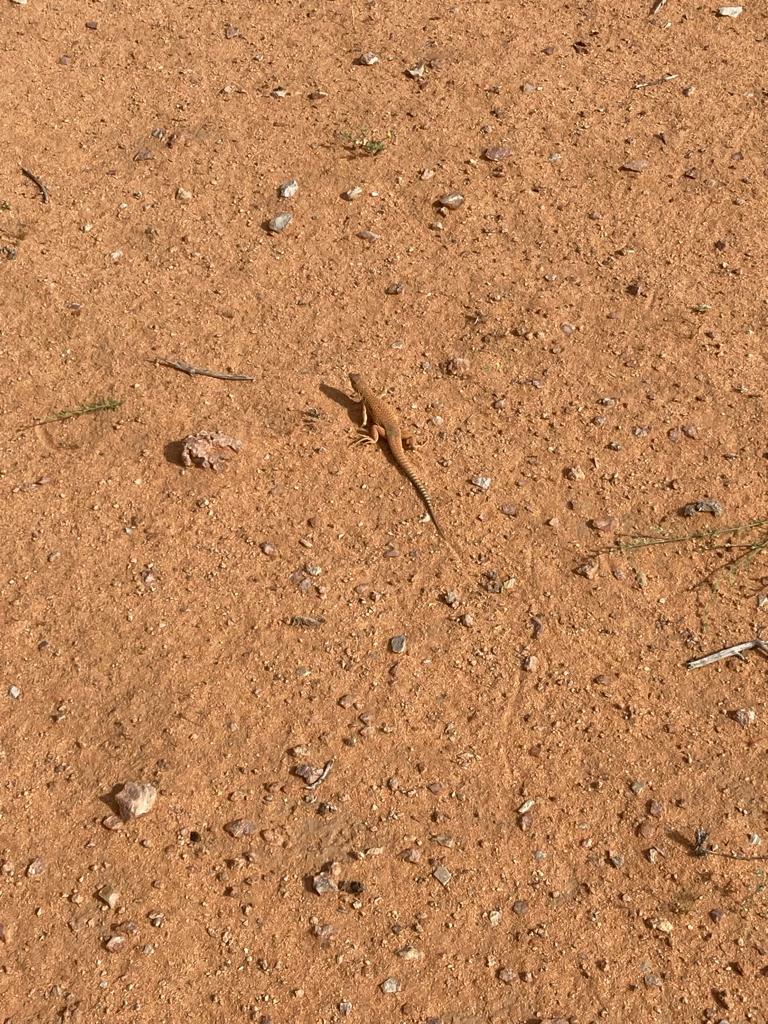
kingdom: Animalia
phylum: Chordata
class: Squamata
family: Lacertidae
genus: Acanthodactylus
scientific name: Acanthodactylus schmidti
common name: Schmidt's fringe-toed lizard
